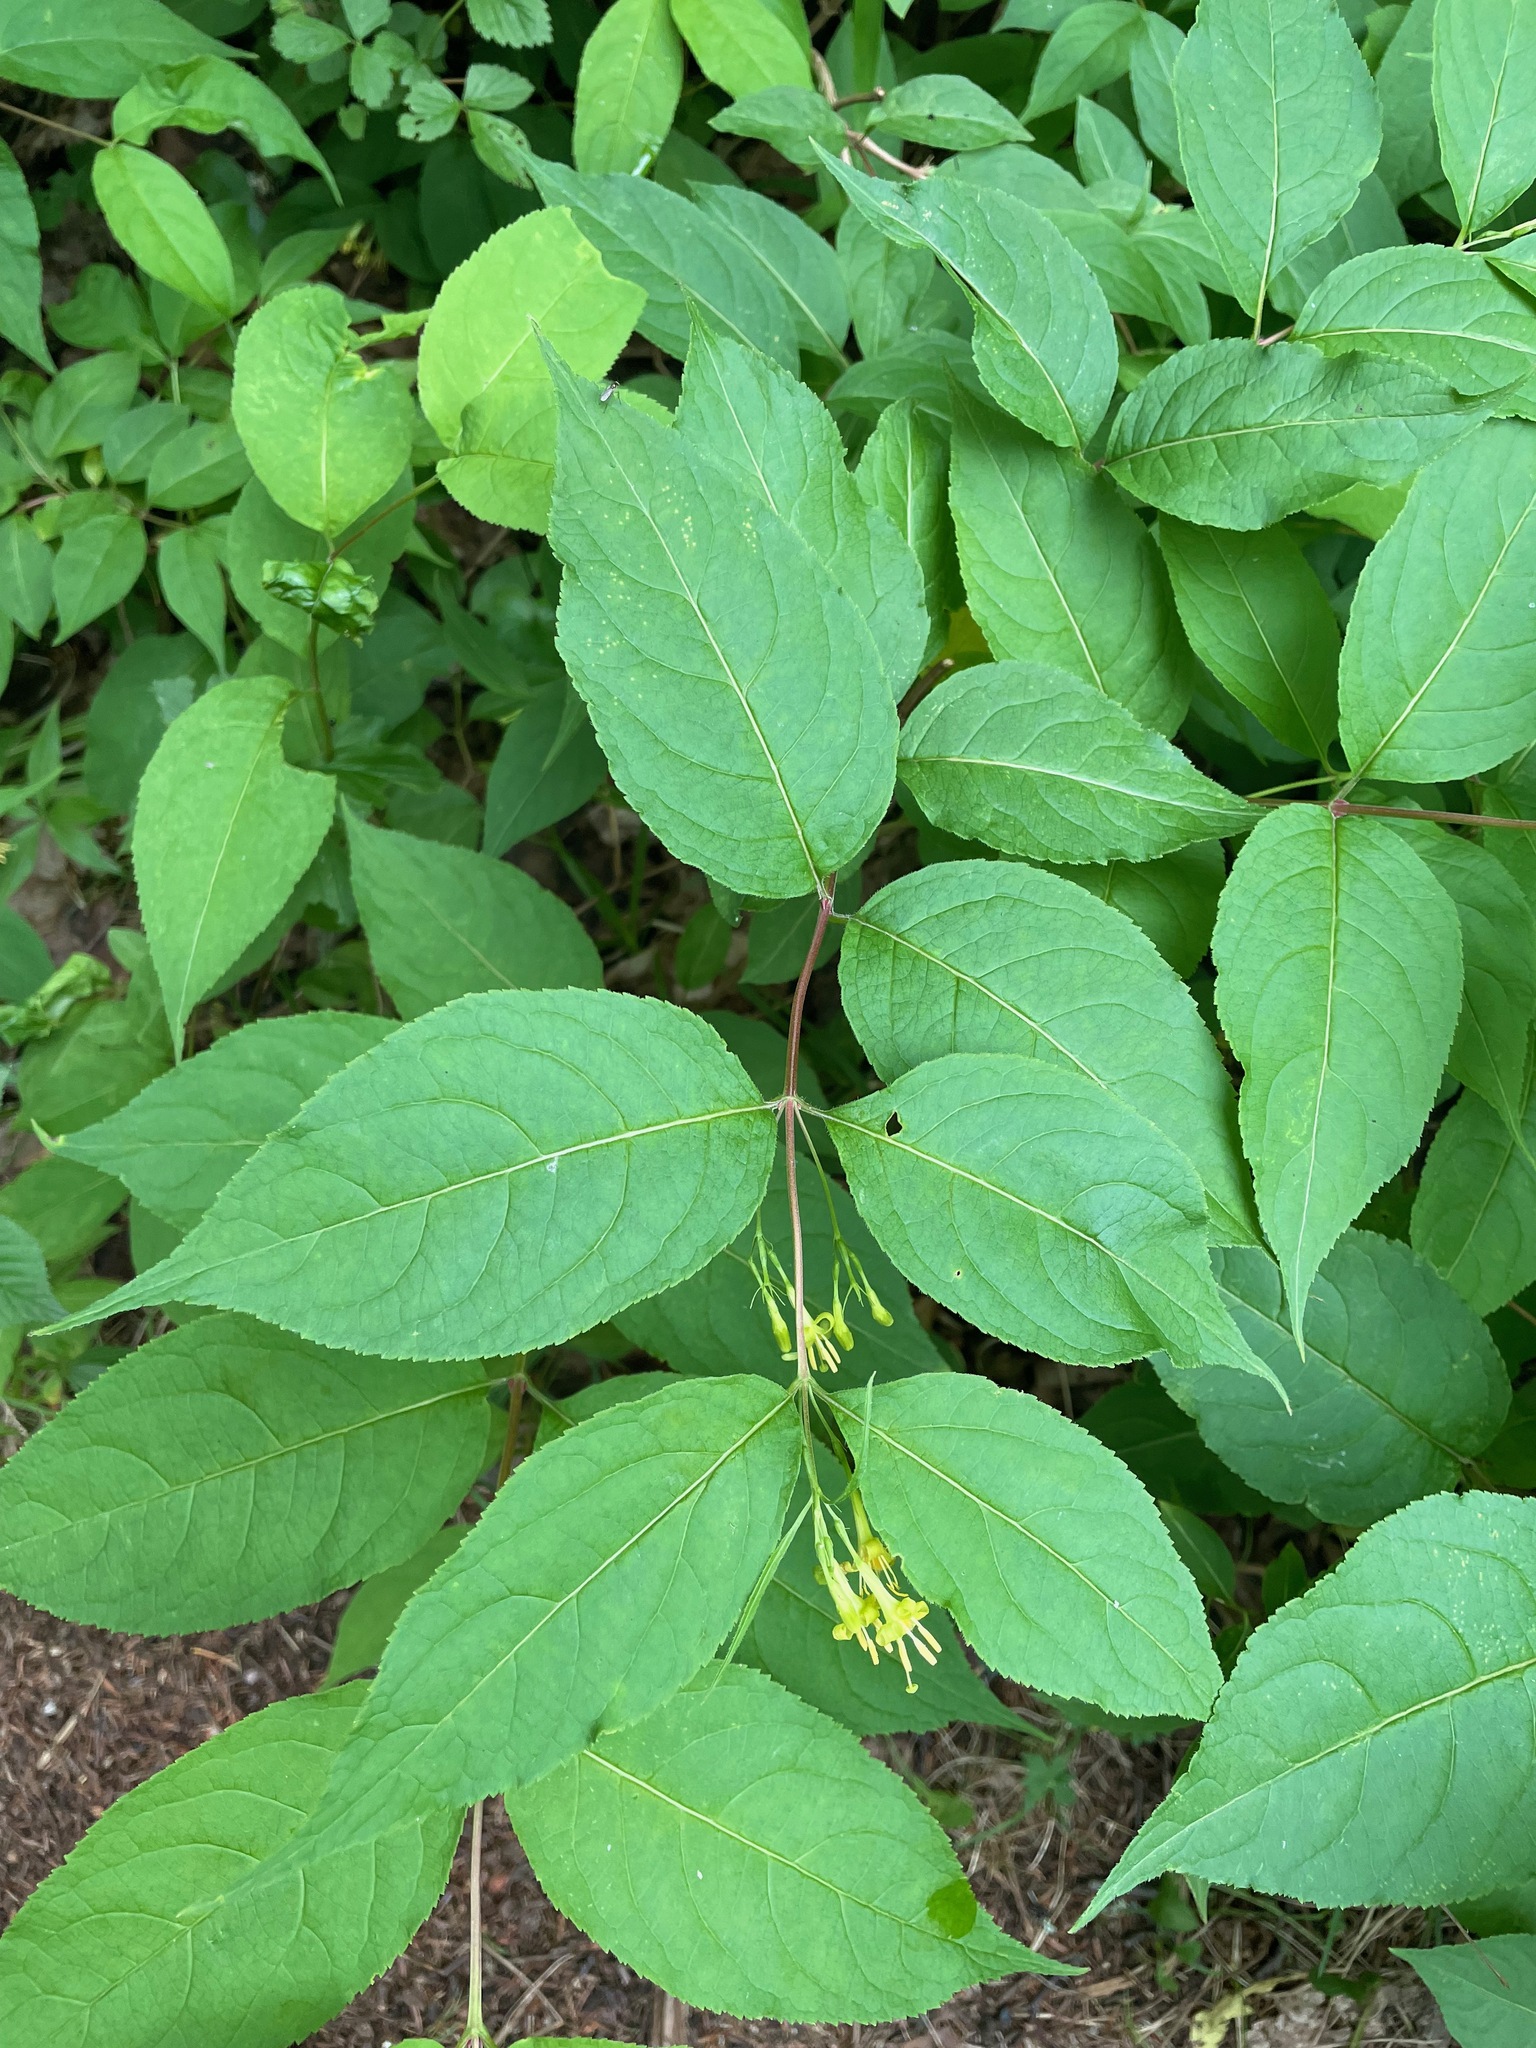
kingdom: Plantae
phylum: Tracheophyta
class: Magnoliopsida
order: Dipsacales
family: Caprifoliaceae
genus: Diervilla
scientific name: Diervilla lonicera
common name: Bush-honeysuckle
